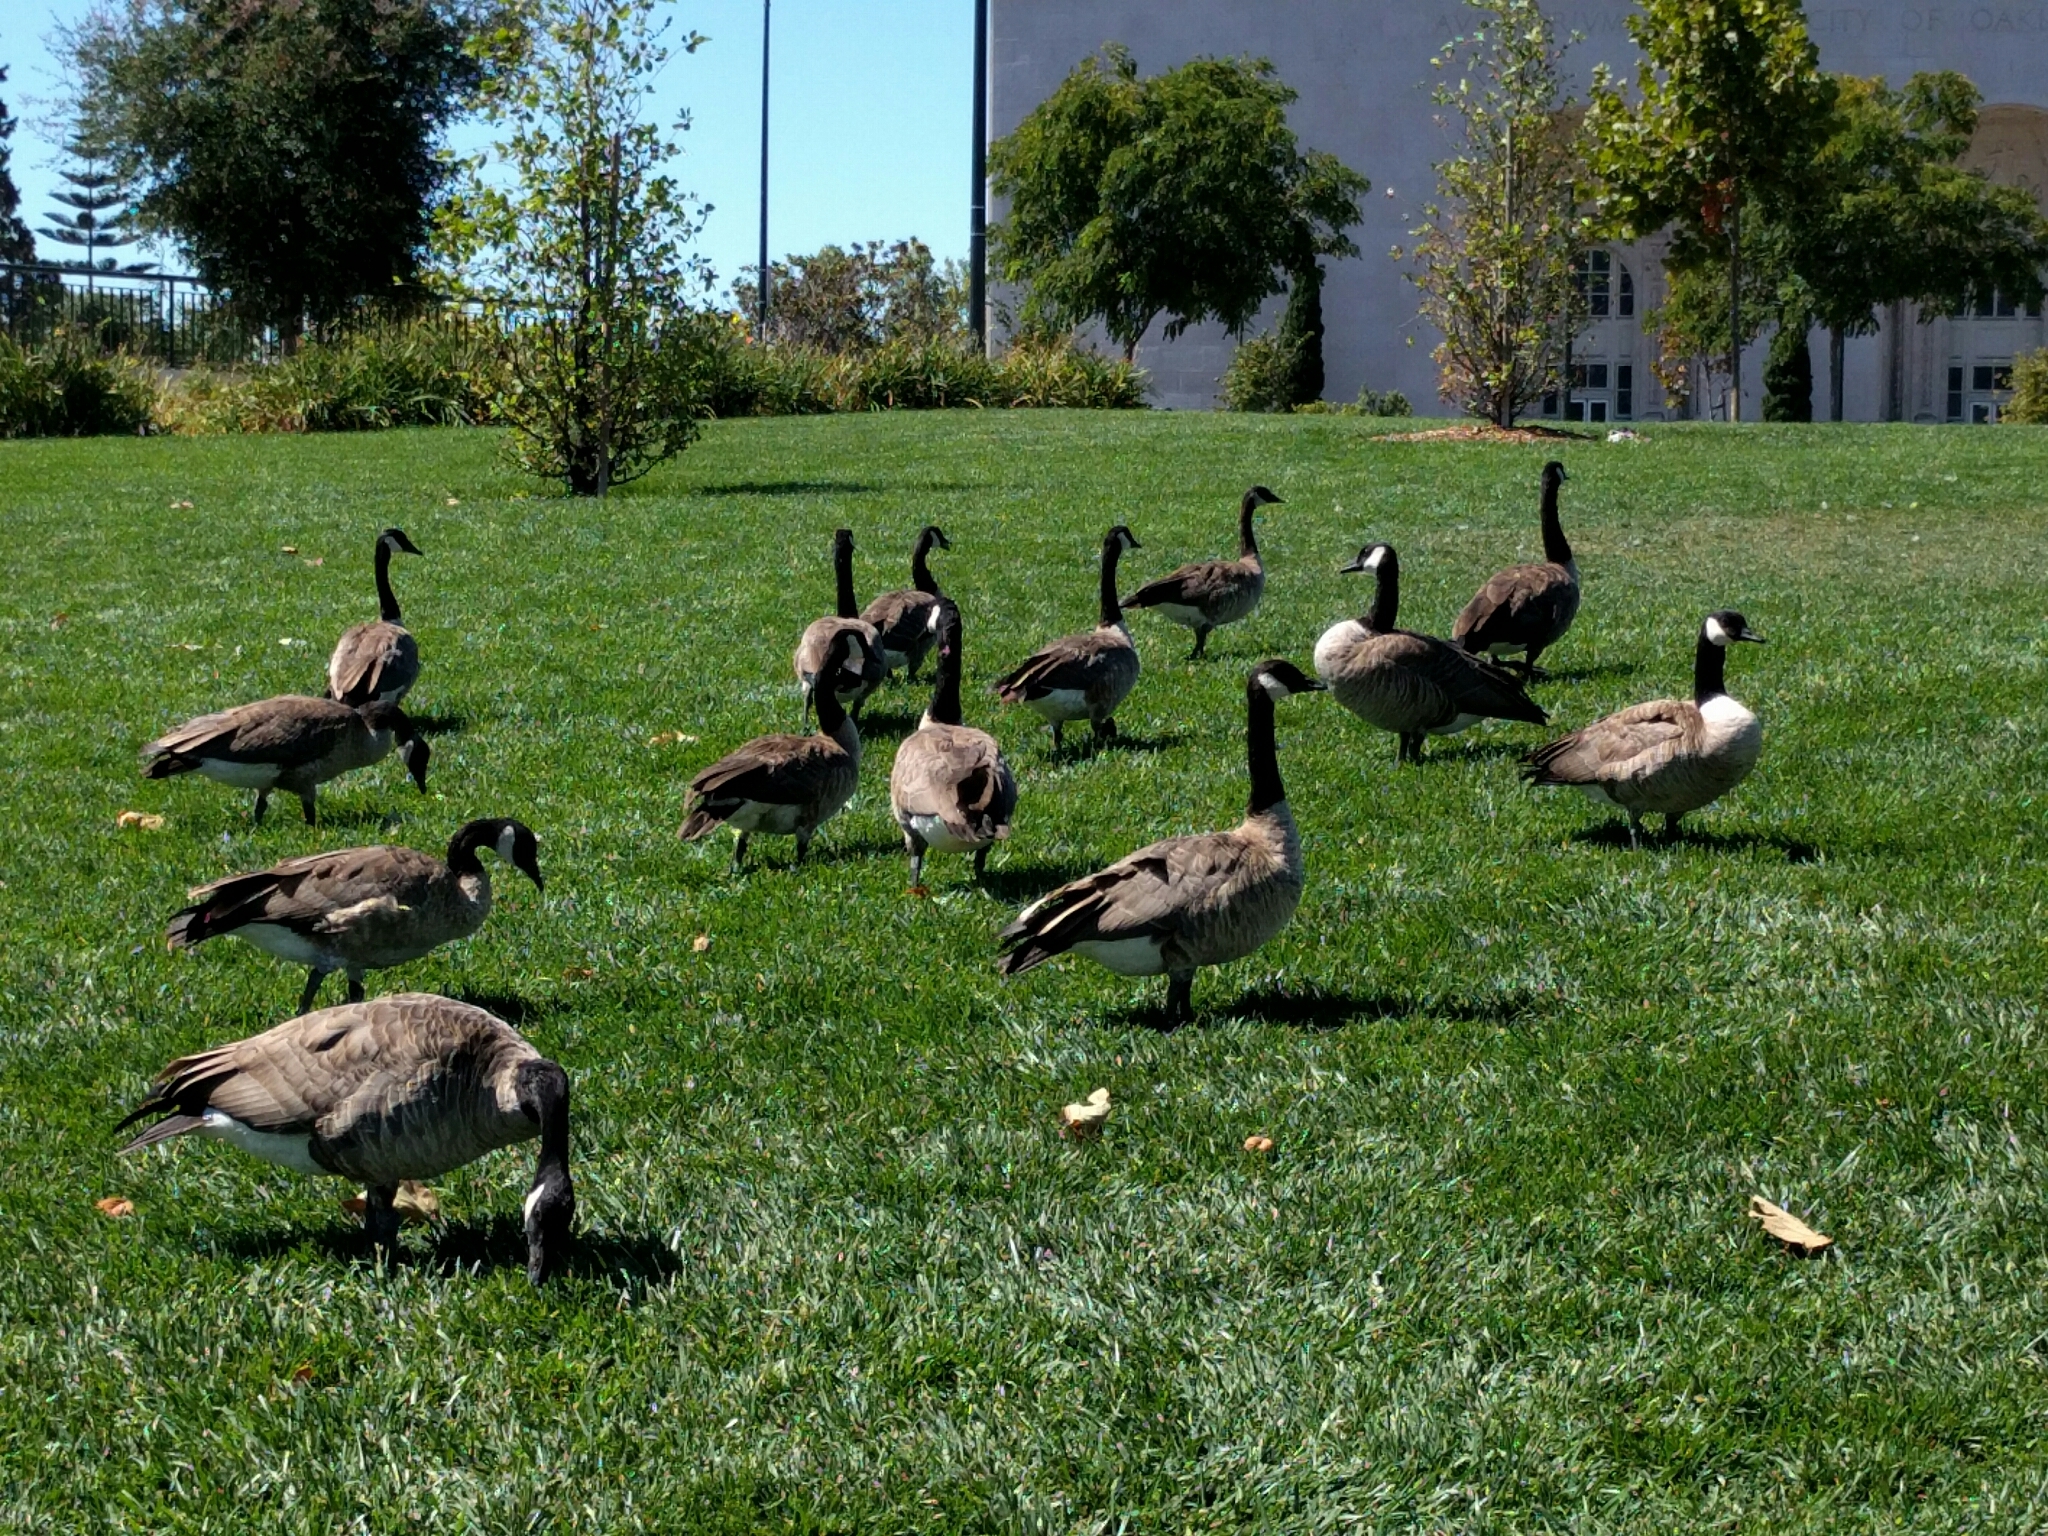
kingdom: Animalia
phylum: Chordata
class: Aves
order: Anseriformes
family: Anatidae
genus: Branta
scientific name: Branta canadensis
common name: Canada goose
